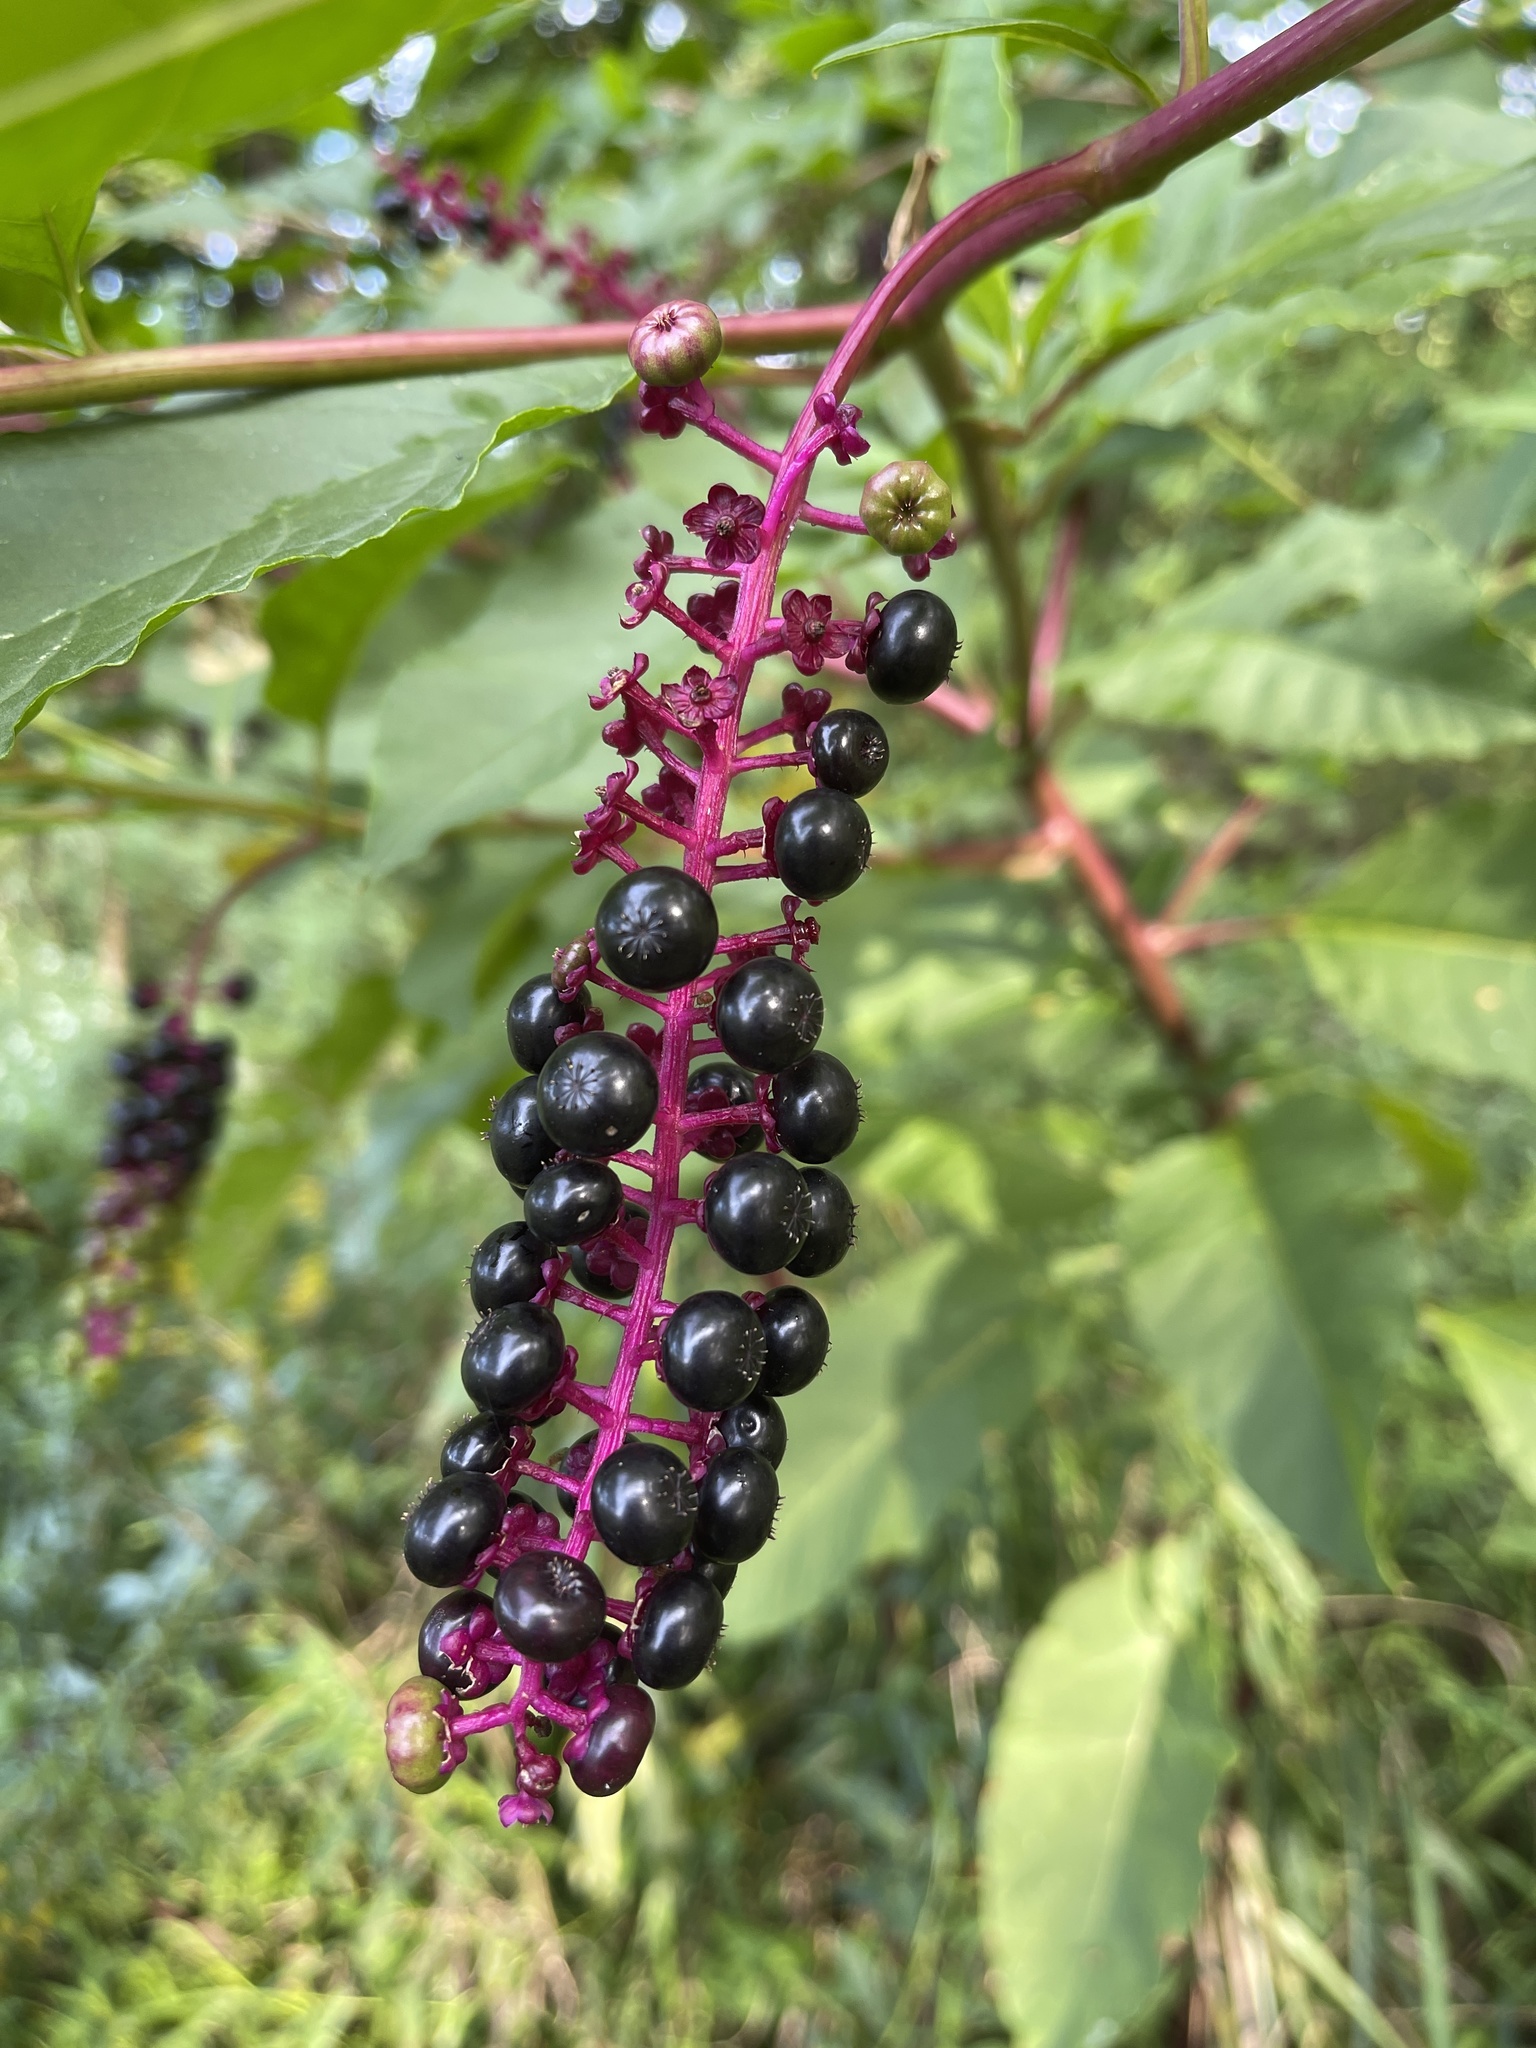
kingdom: Plantae
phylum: Tracheophyta
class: Magnoliopsida
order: Caryophyllales
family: Phytolaccaceae
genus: Phytolacca
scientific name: Phytolacca americana
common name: American pokeweed
